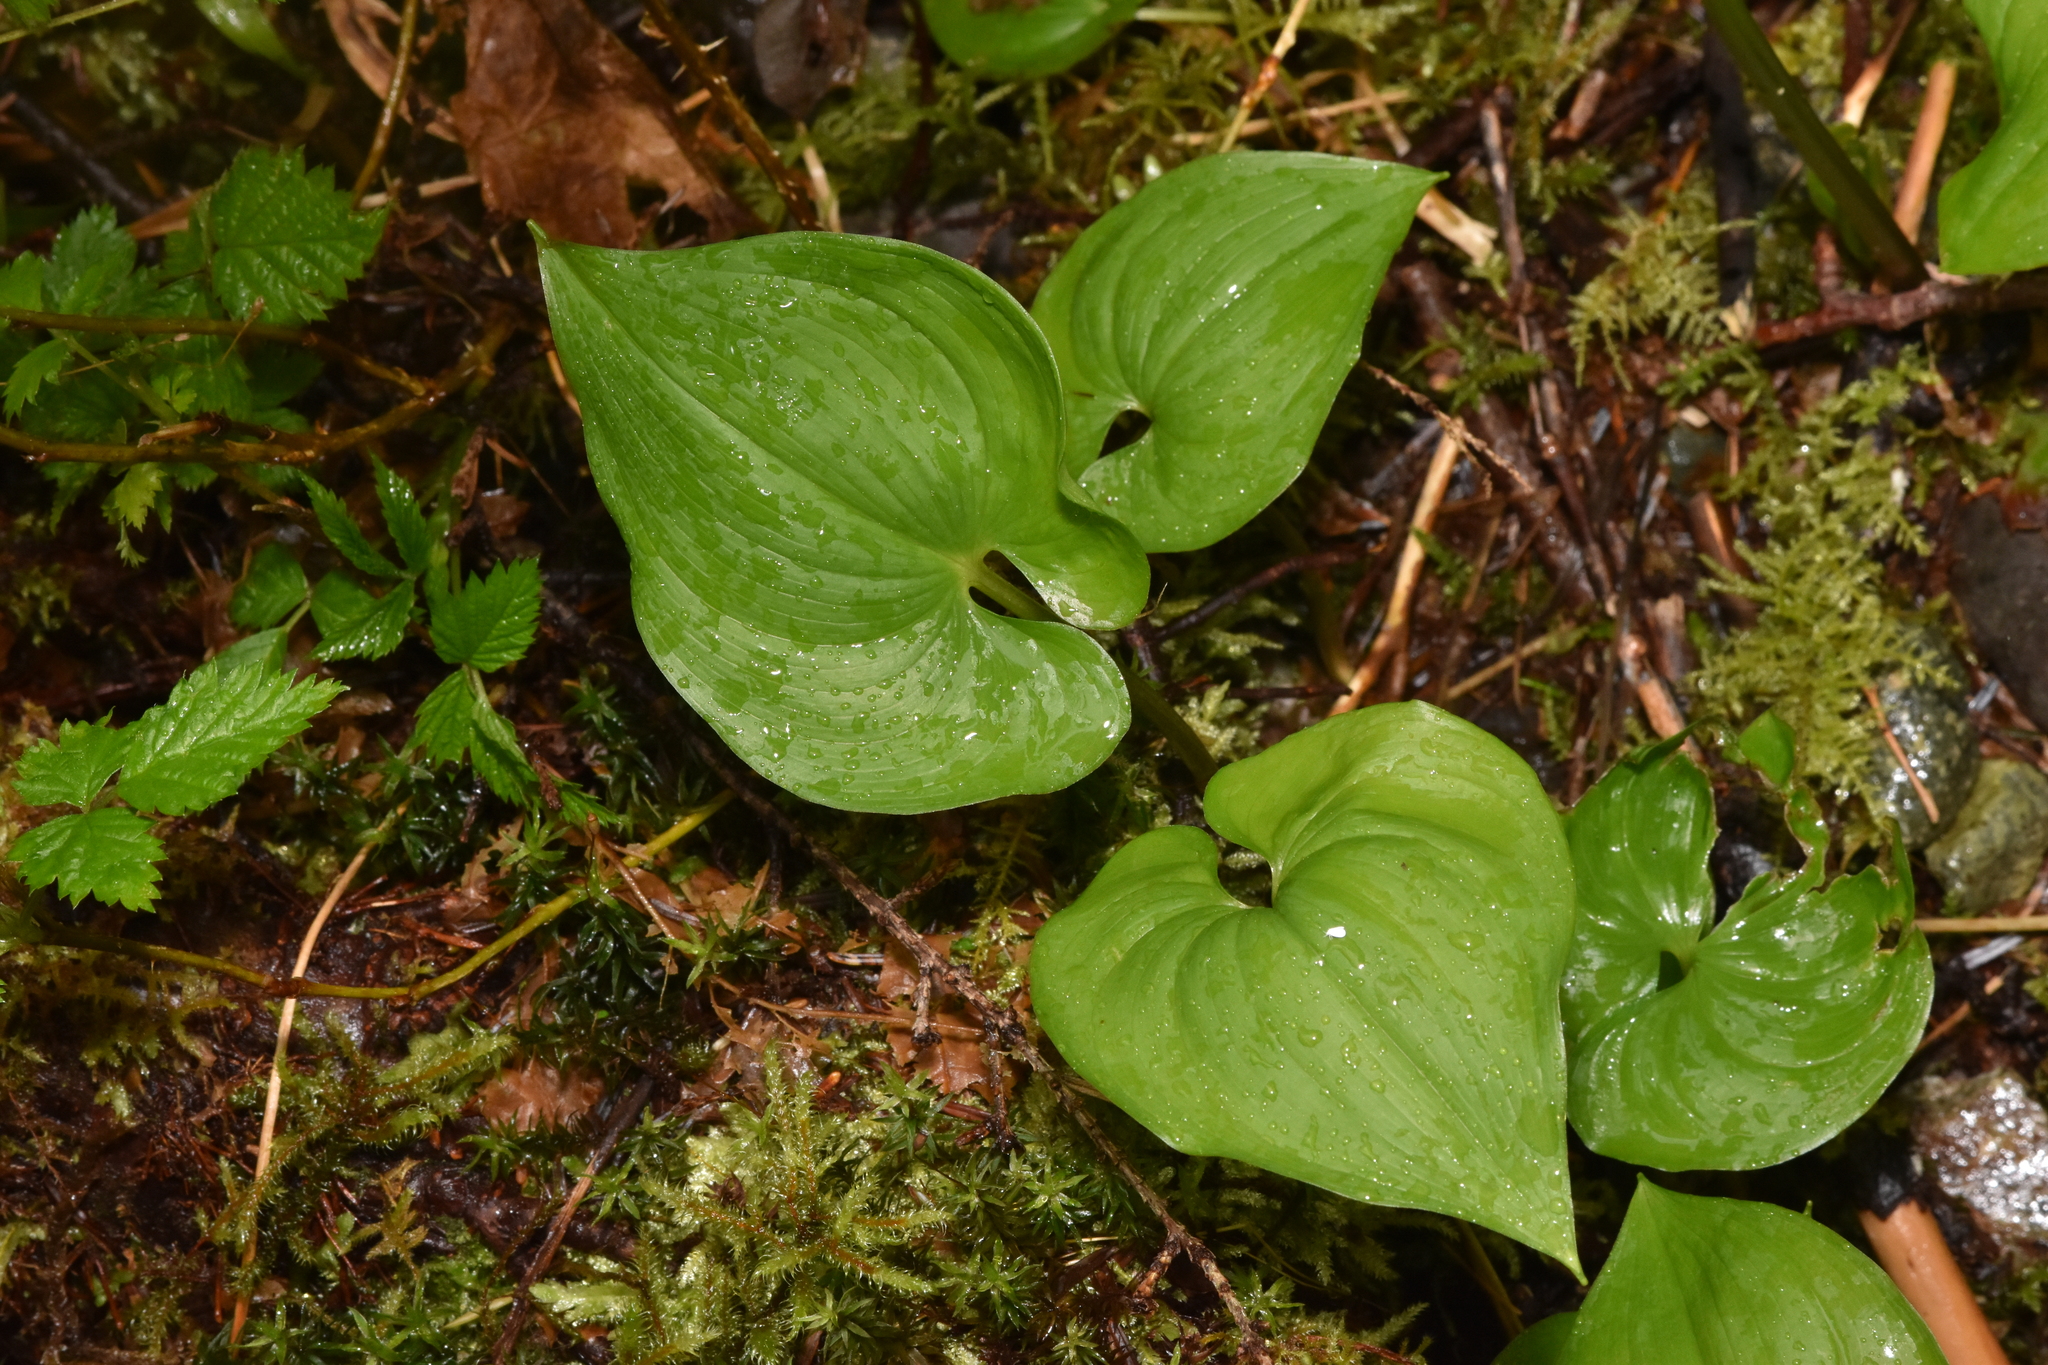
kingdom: Plantae
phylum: Tracheophyta
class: Liliopsida
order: Asparagales
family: Asparagaceae
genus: Maianthemum
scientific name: Maianthemum dilatatum
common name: False lily-of-the-valley
